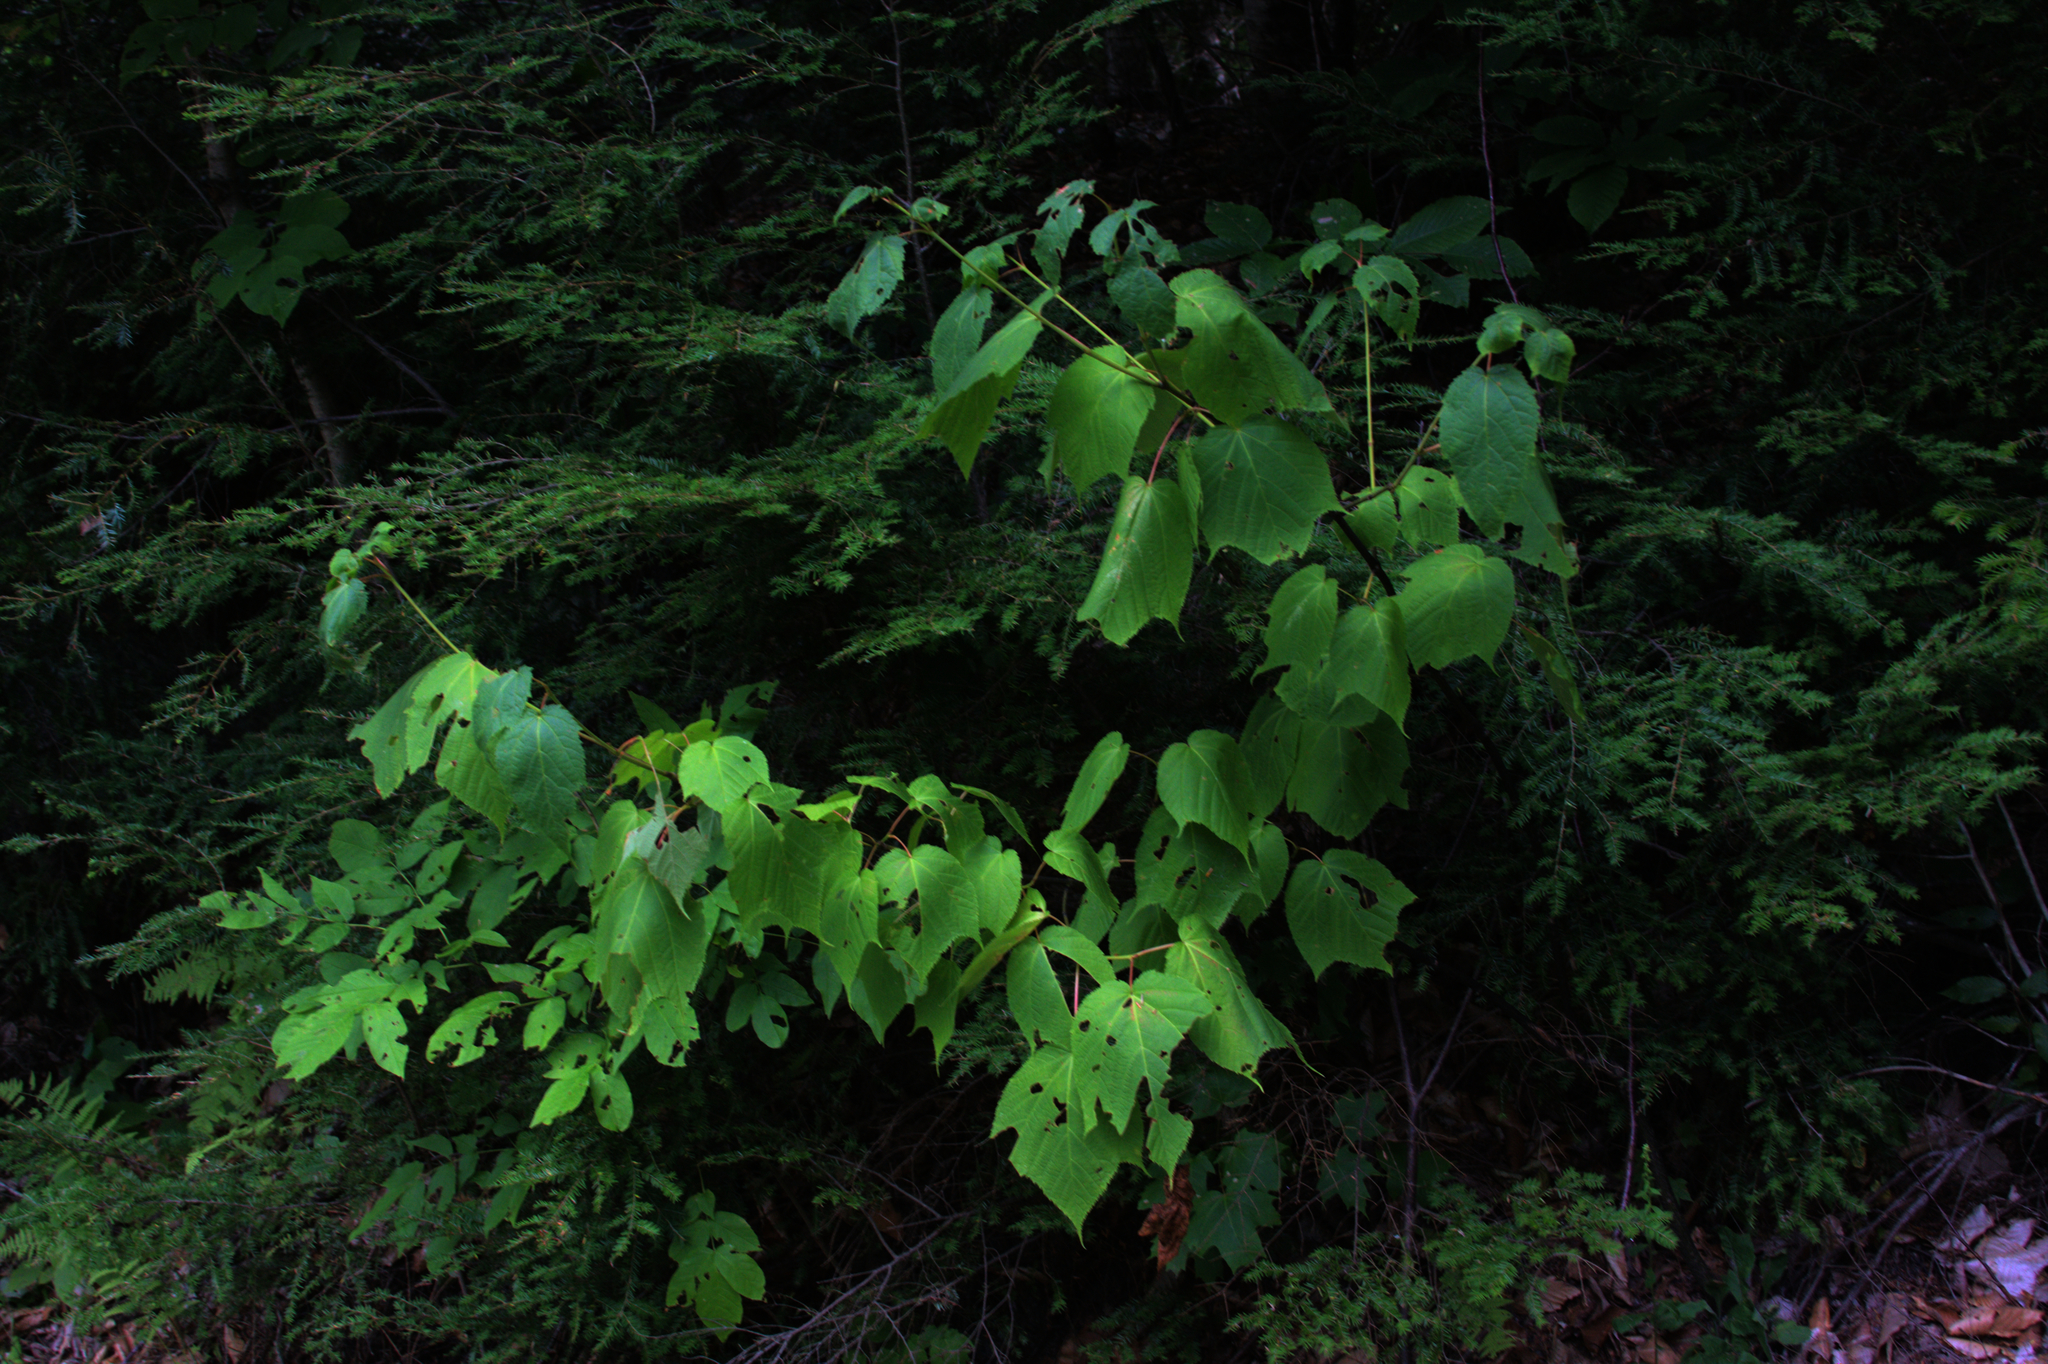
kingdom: Plantae
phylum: Tracheophyta
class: Magnoliopsida
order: Sapindales
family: Sapindaceae
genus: Acer
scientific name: Acer pensylvanicum
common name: Moosewood
